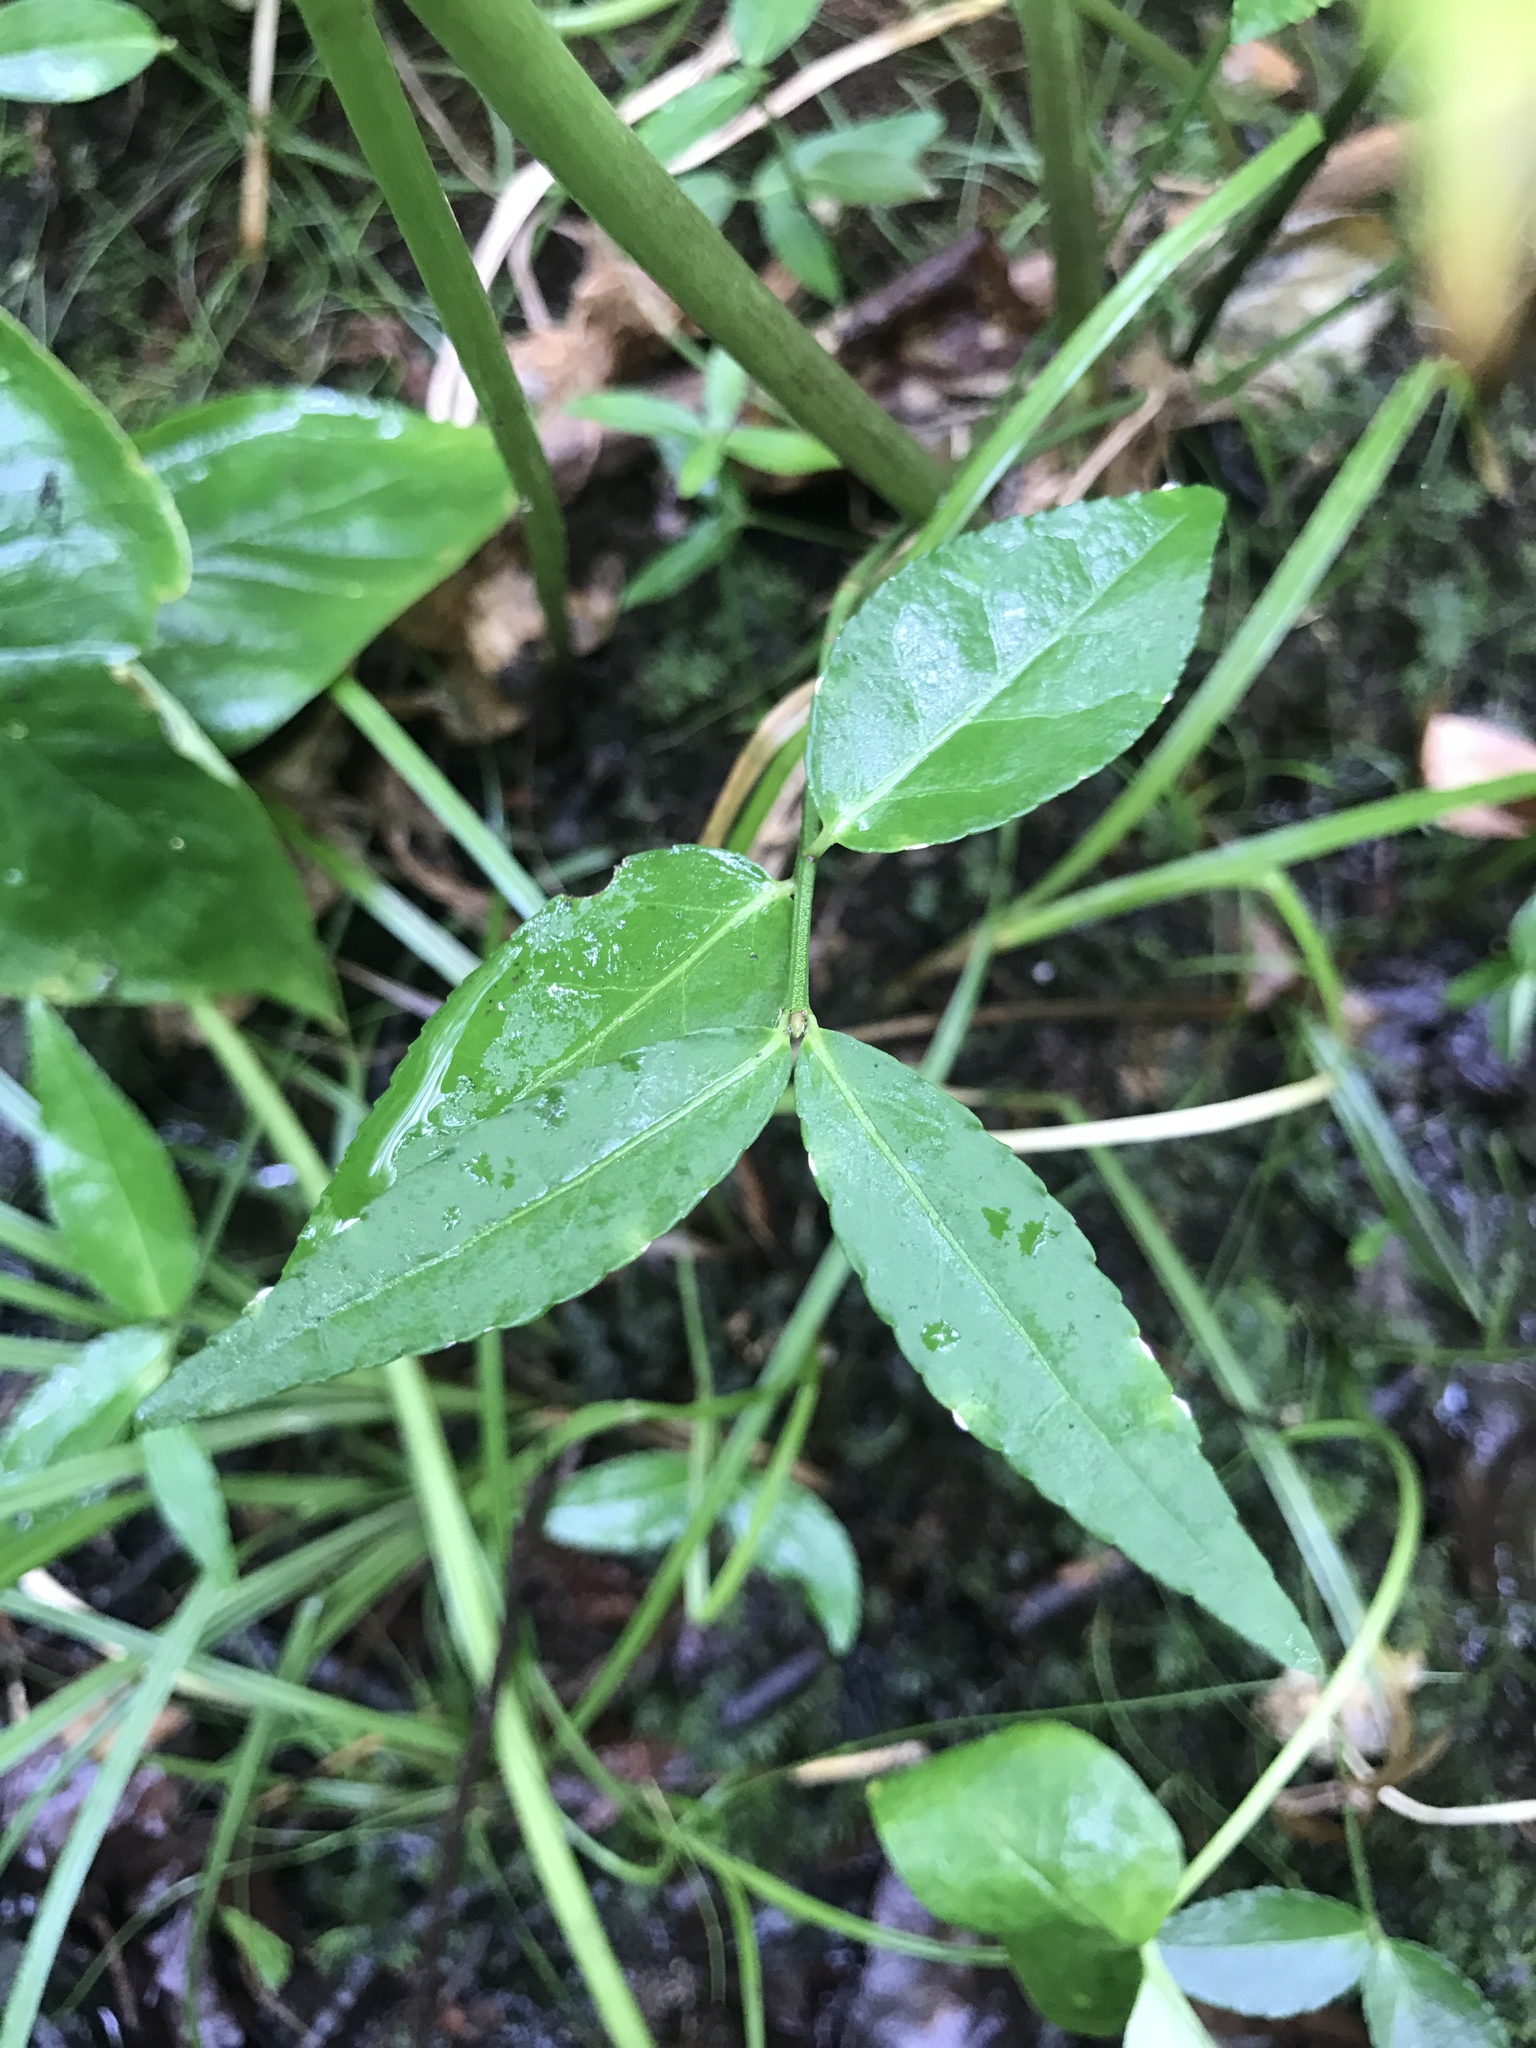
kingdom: Plantae
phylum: Tracheophyta
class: Magnoliopsida
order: Celastrales
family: Celastraceae
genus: Euonymus
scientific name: Euonymus americanus
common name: Bursting-heart
